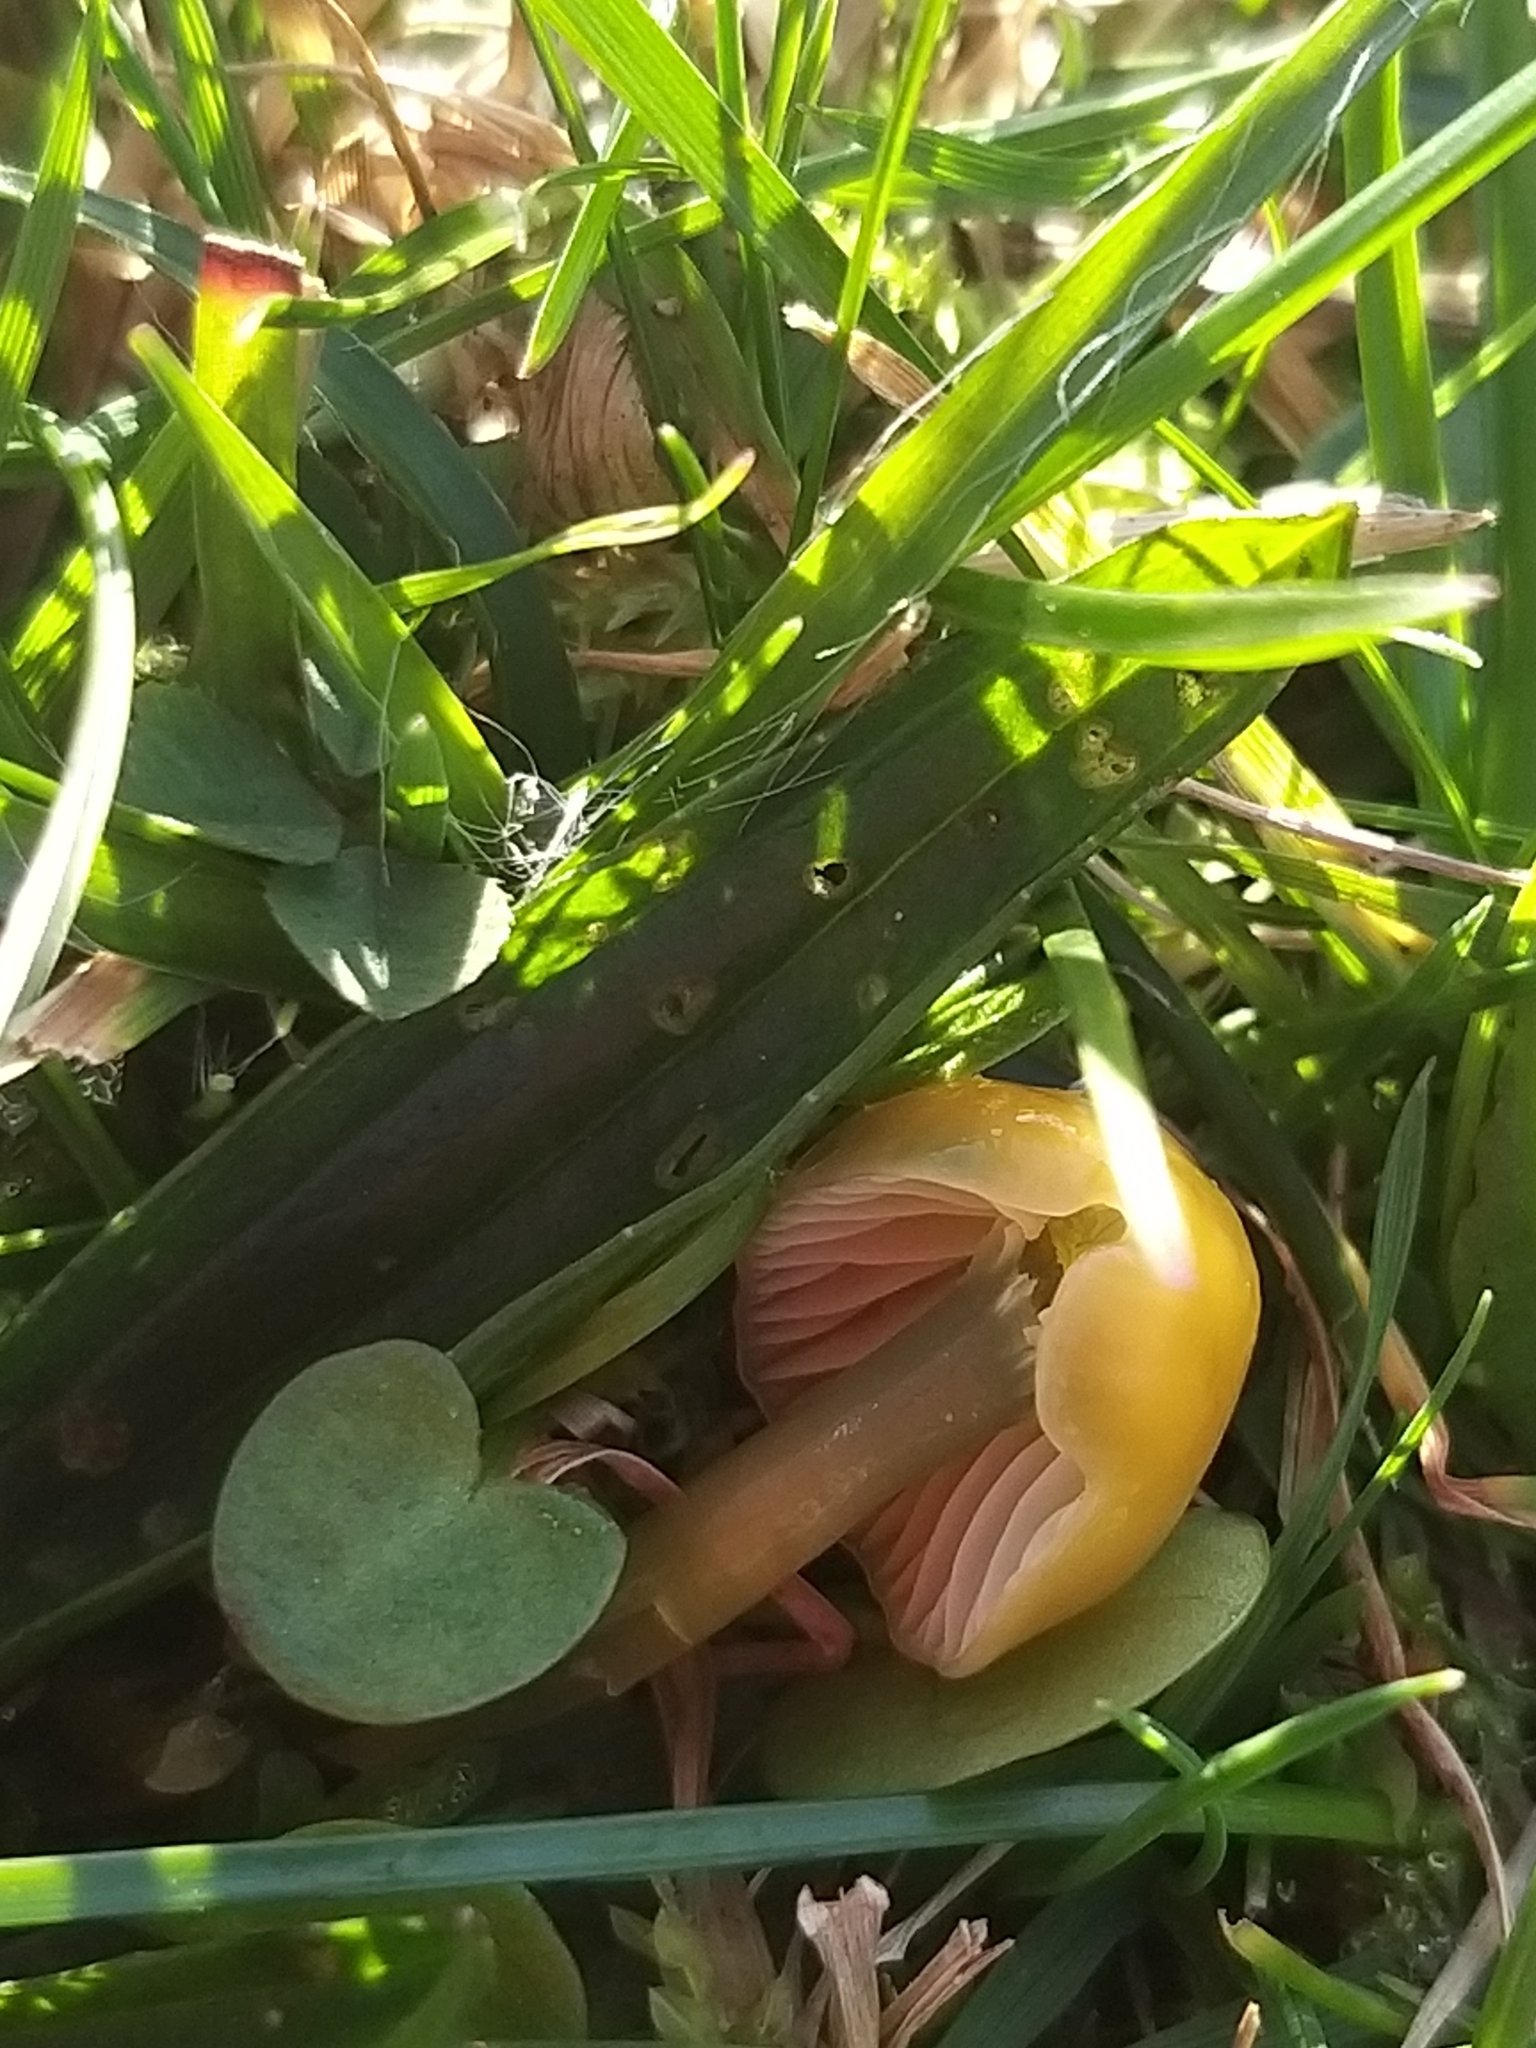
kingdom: Fungi
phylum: Basidiomycota
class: Agaricomycetes
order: Agaricales
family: Hygrophoraceae
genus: Gliophorus
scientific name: Gliophorus psittacinus
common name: Parrot wax-cap
